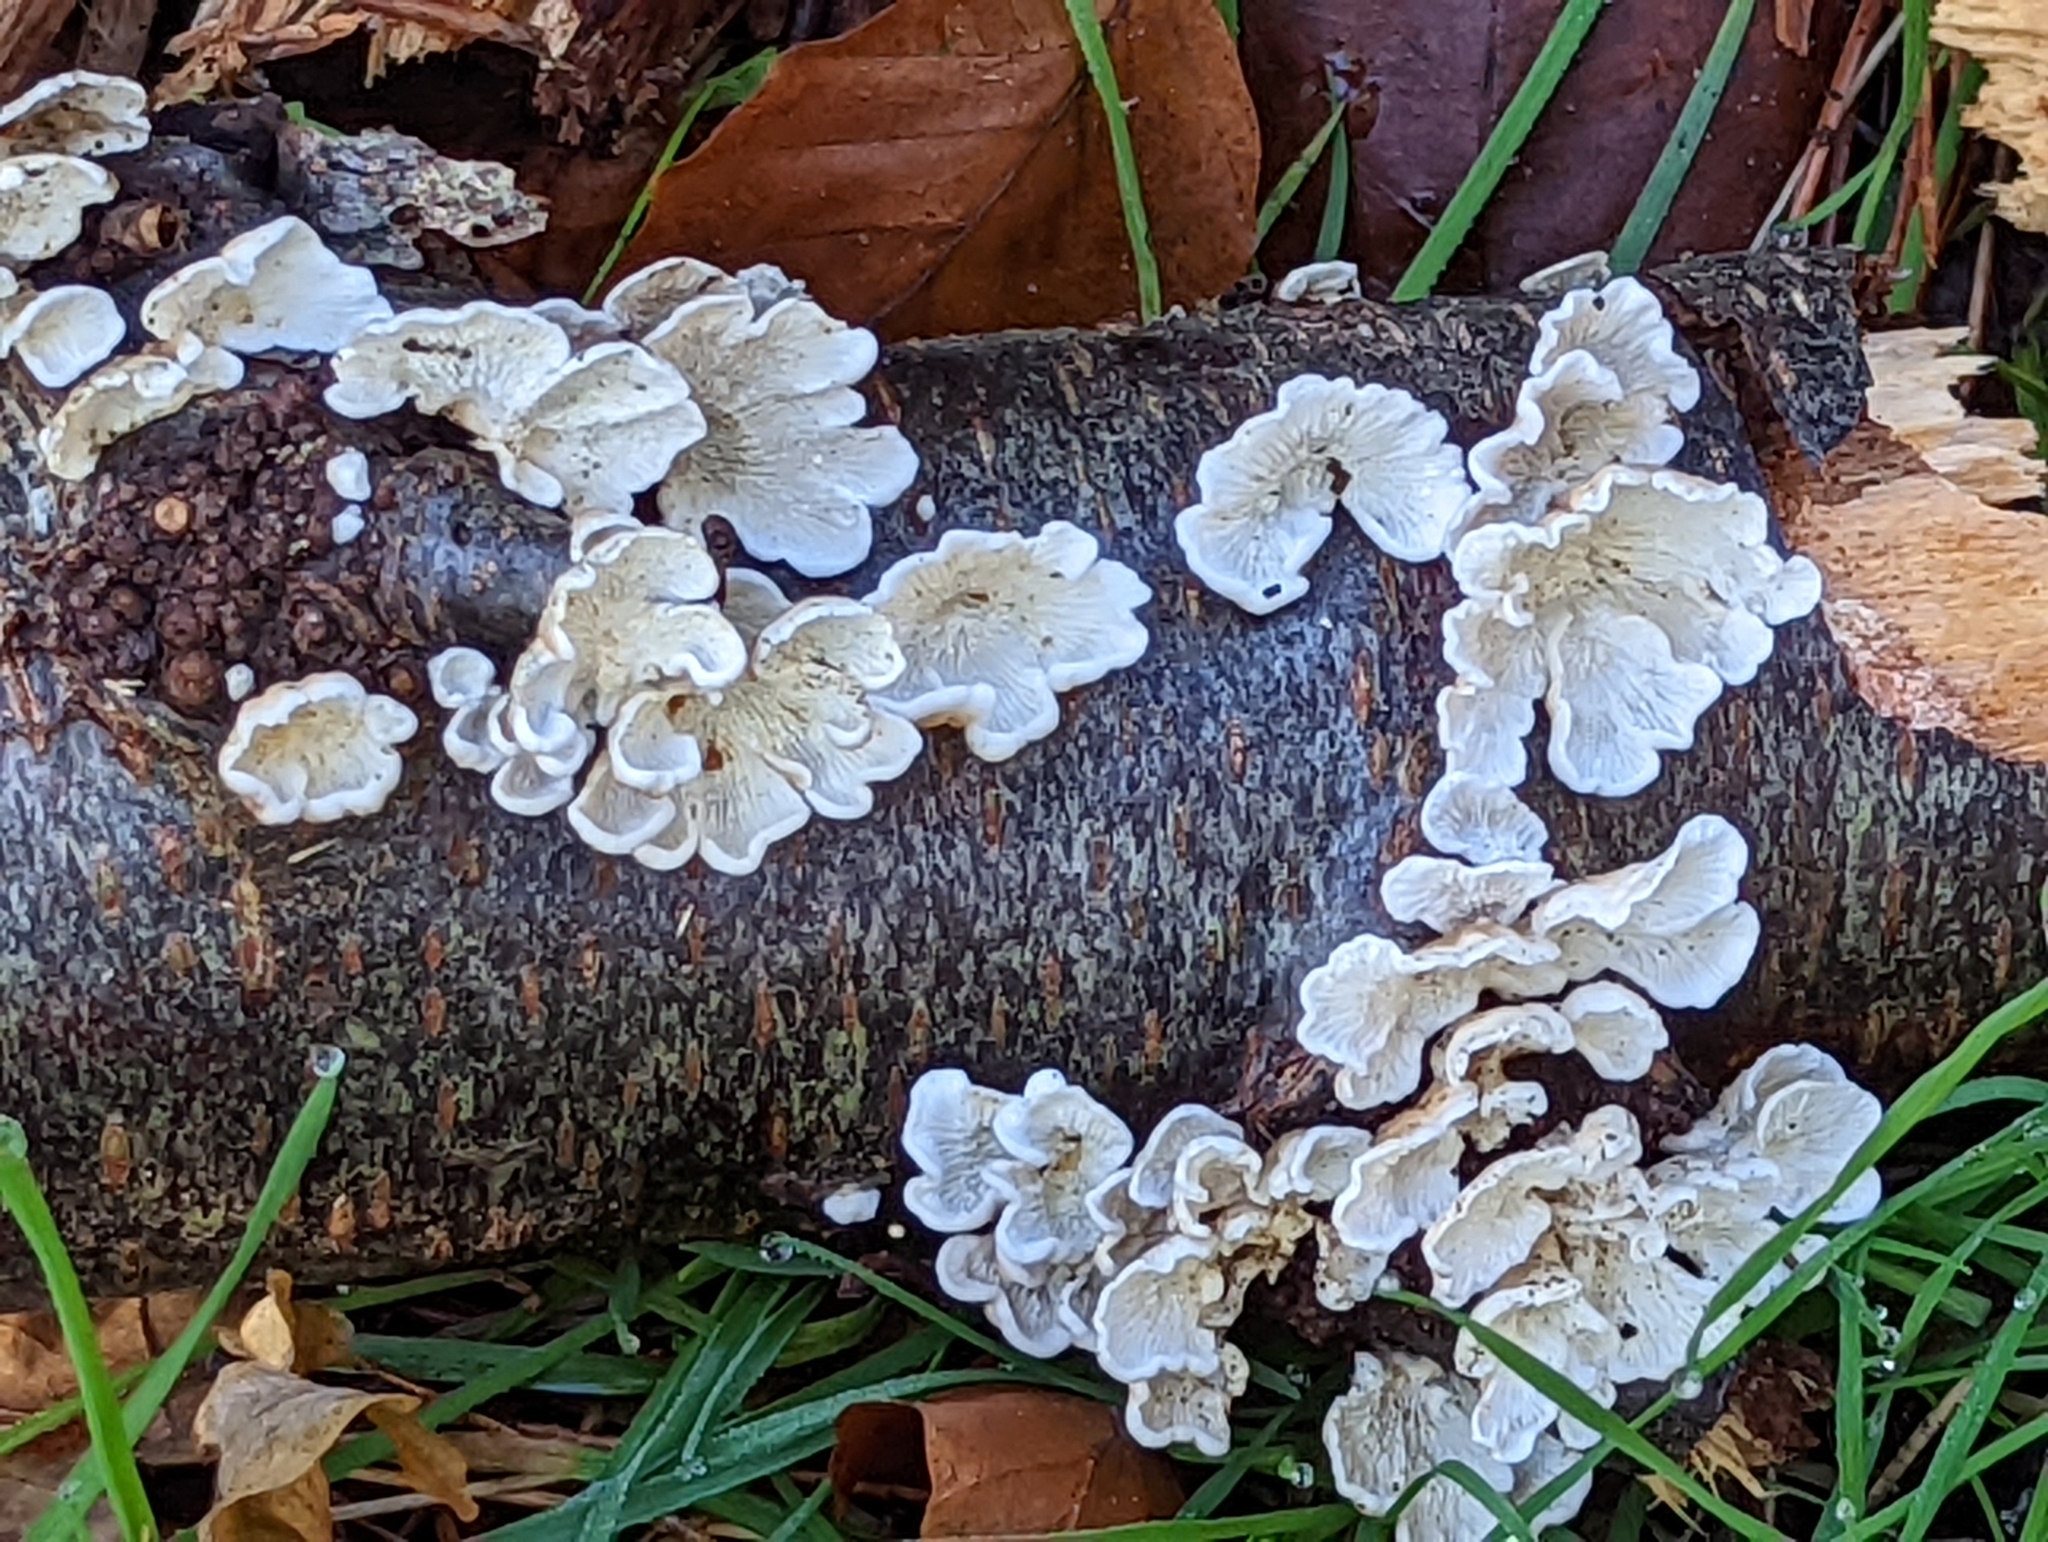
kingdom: Fungi
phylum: Basidiomycota
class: Agaricomycetes
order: Amylocorticiales
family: Amylocorticiaceae
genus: Plicaturopsis
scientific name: Plicaturopsis crispa
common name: Crimped gill
